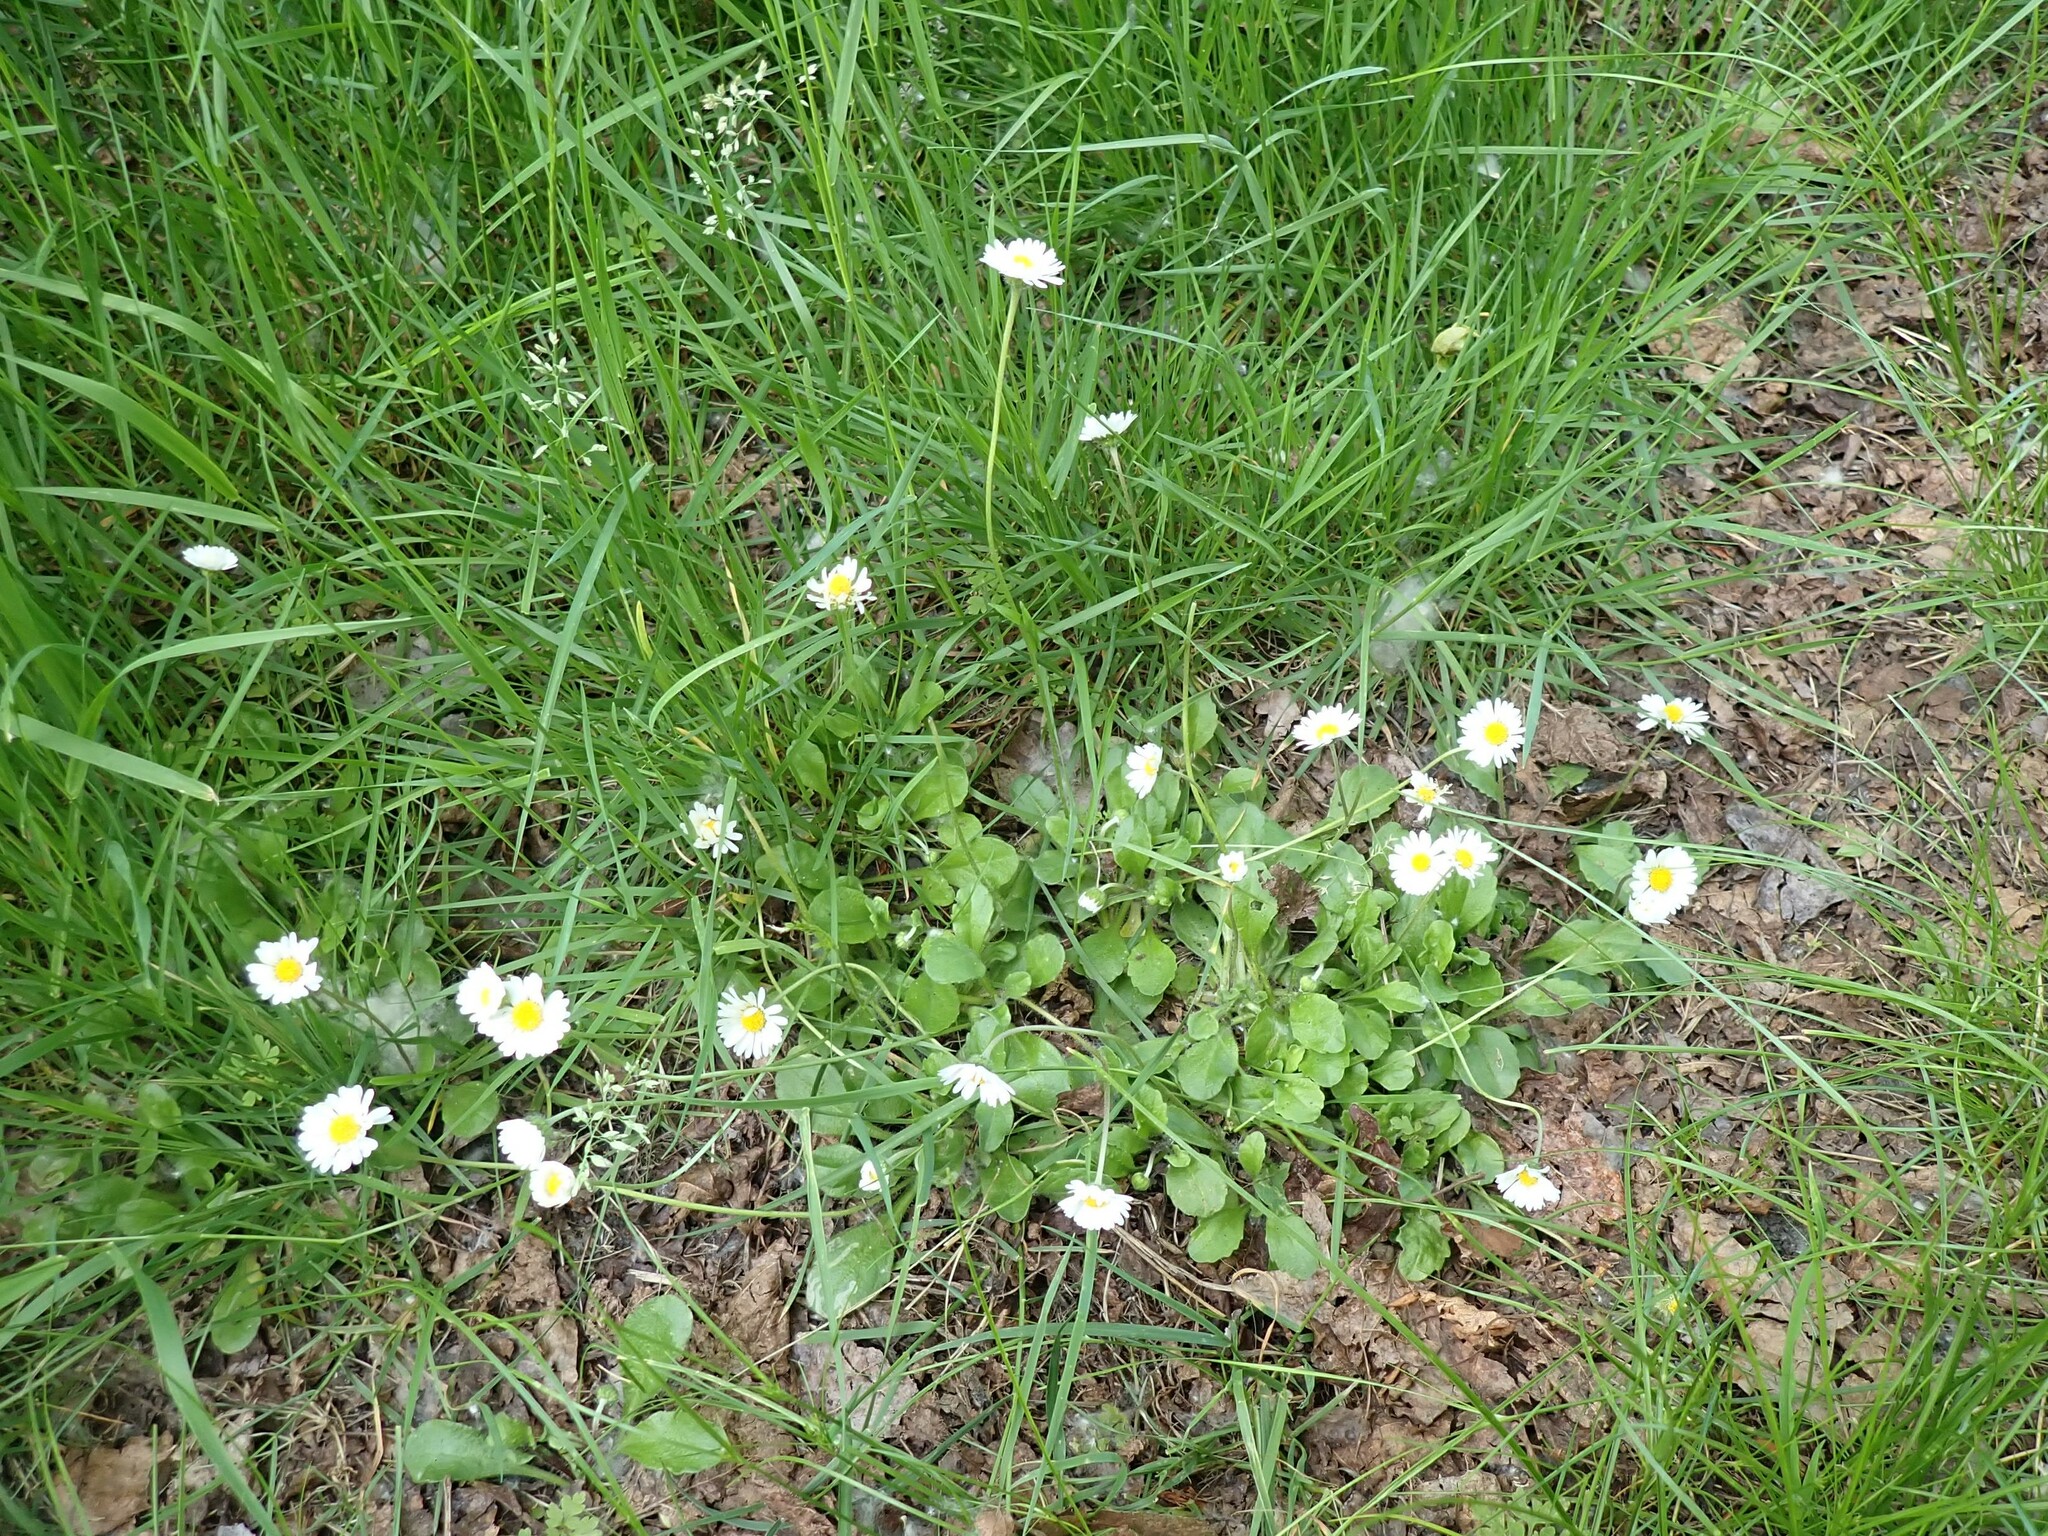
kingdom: Plantae
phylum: Tracheophyta
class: Magnoliopsida
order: Asterales
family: Asteraceae
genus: Bellis
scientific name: Bellis perennis
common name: Lawndaisy
